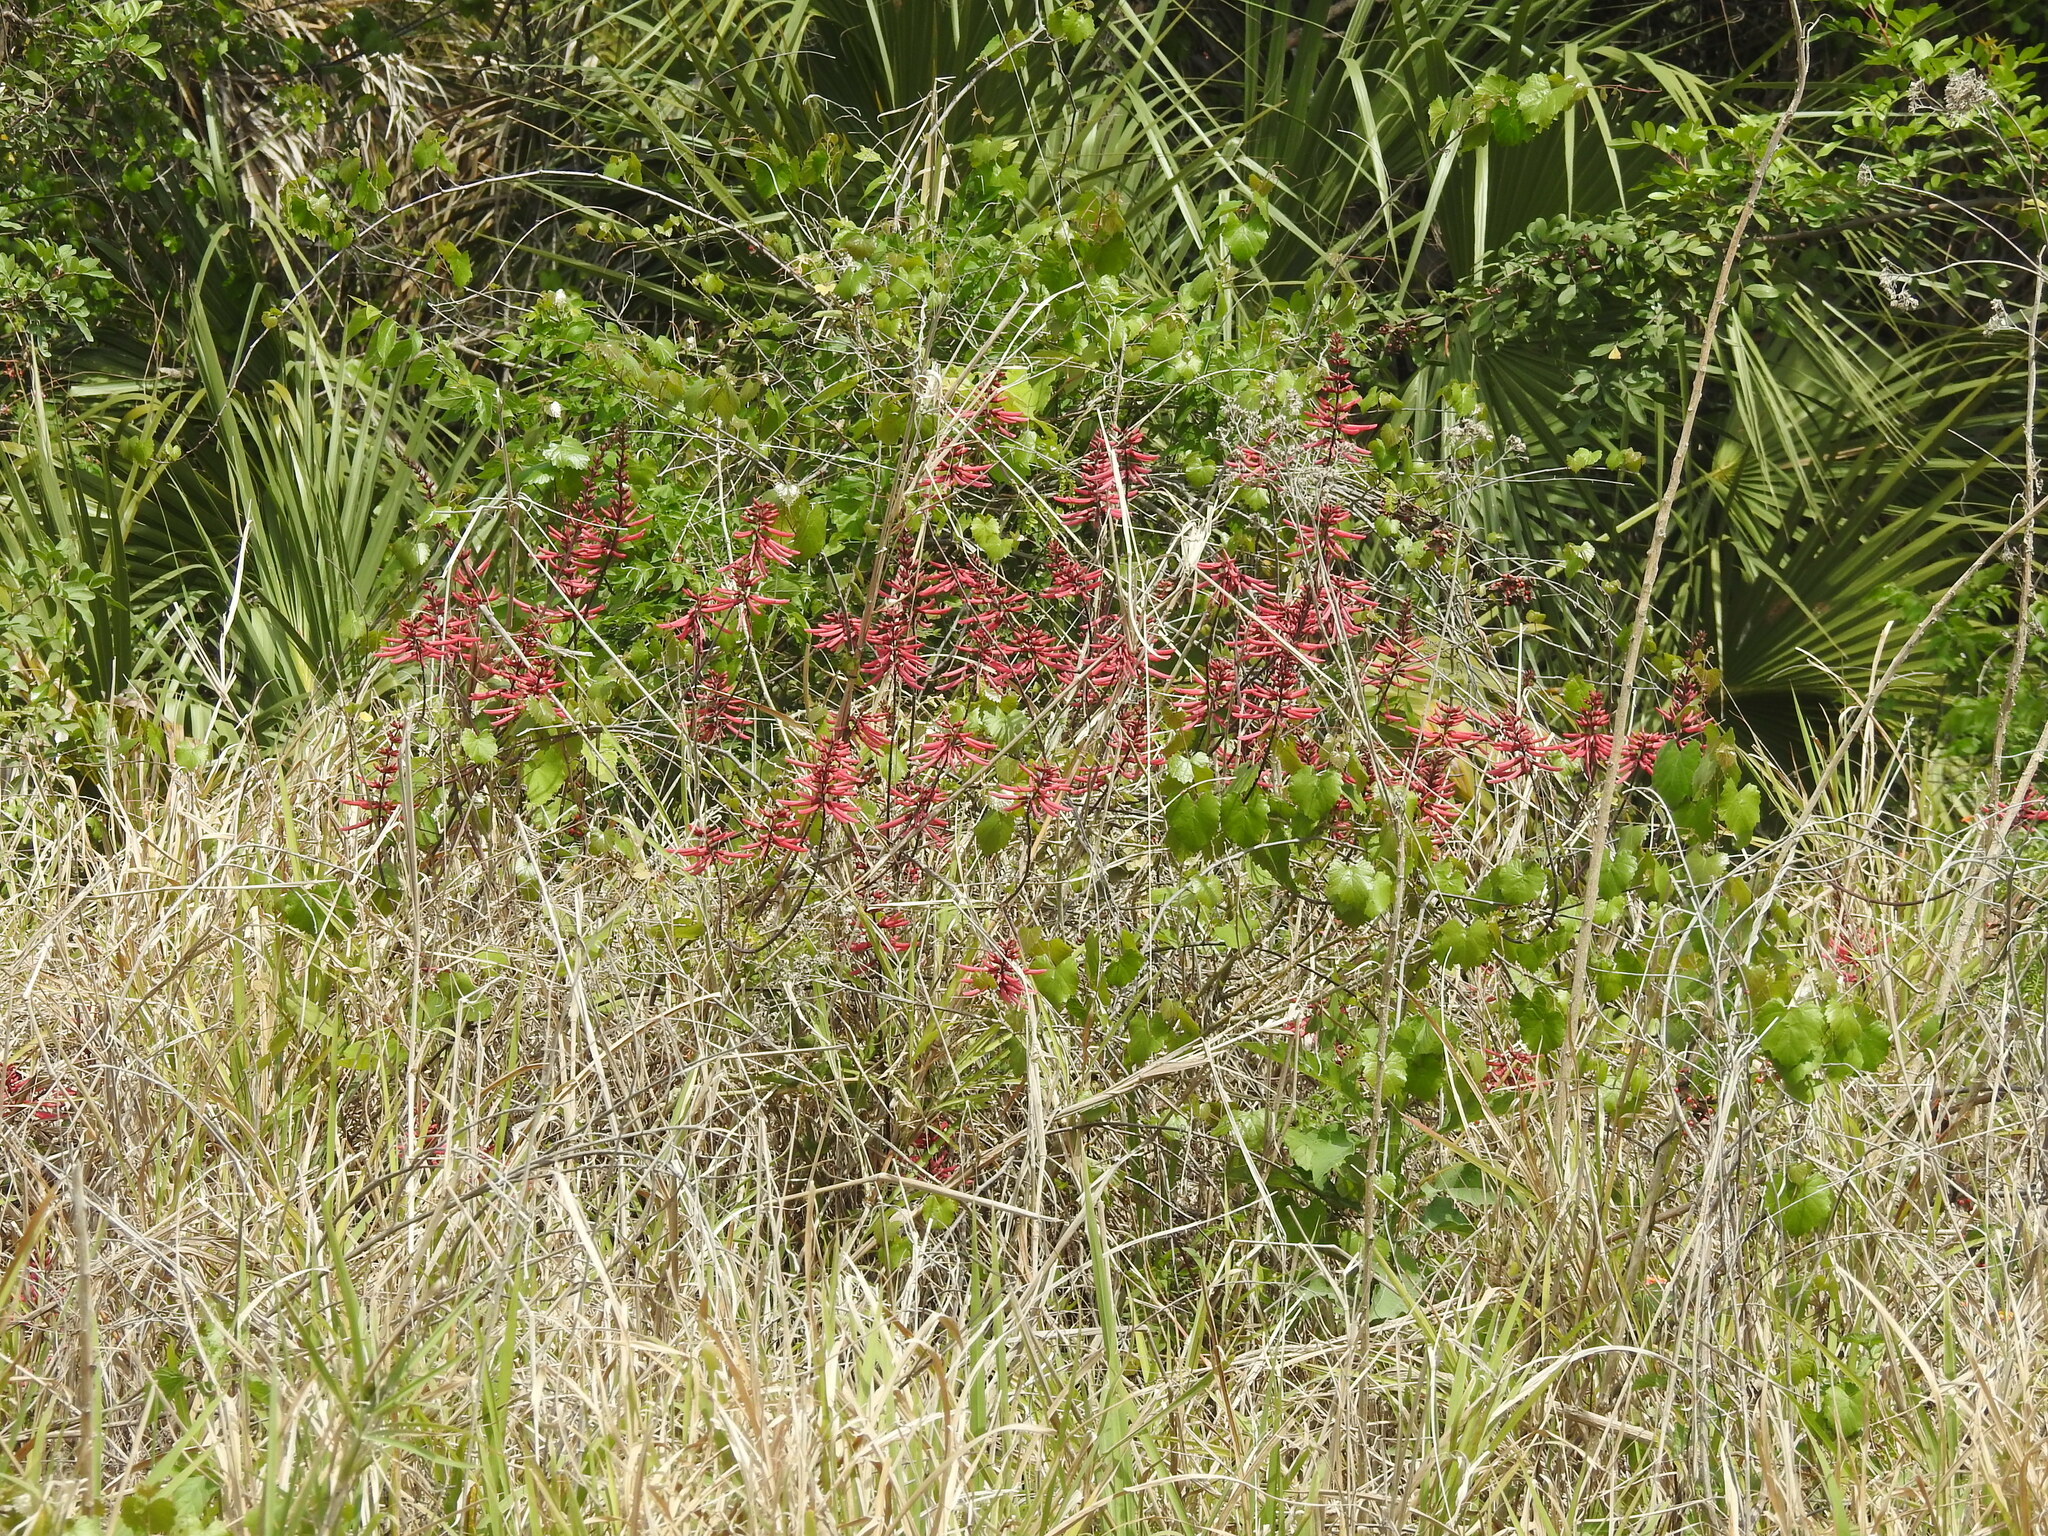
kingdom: Plantae
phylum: Tracheophyta
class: Magnoliopsida
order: Fabales
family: Fabaceae
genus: Erythrina
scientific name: Erythrina herbacea
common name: Coral-bean
